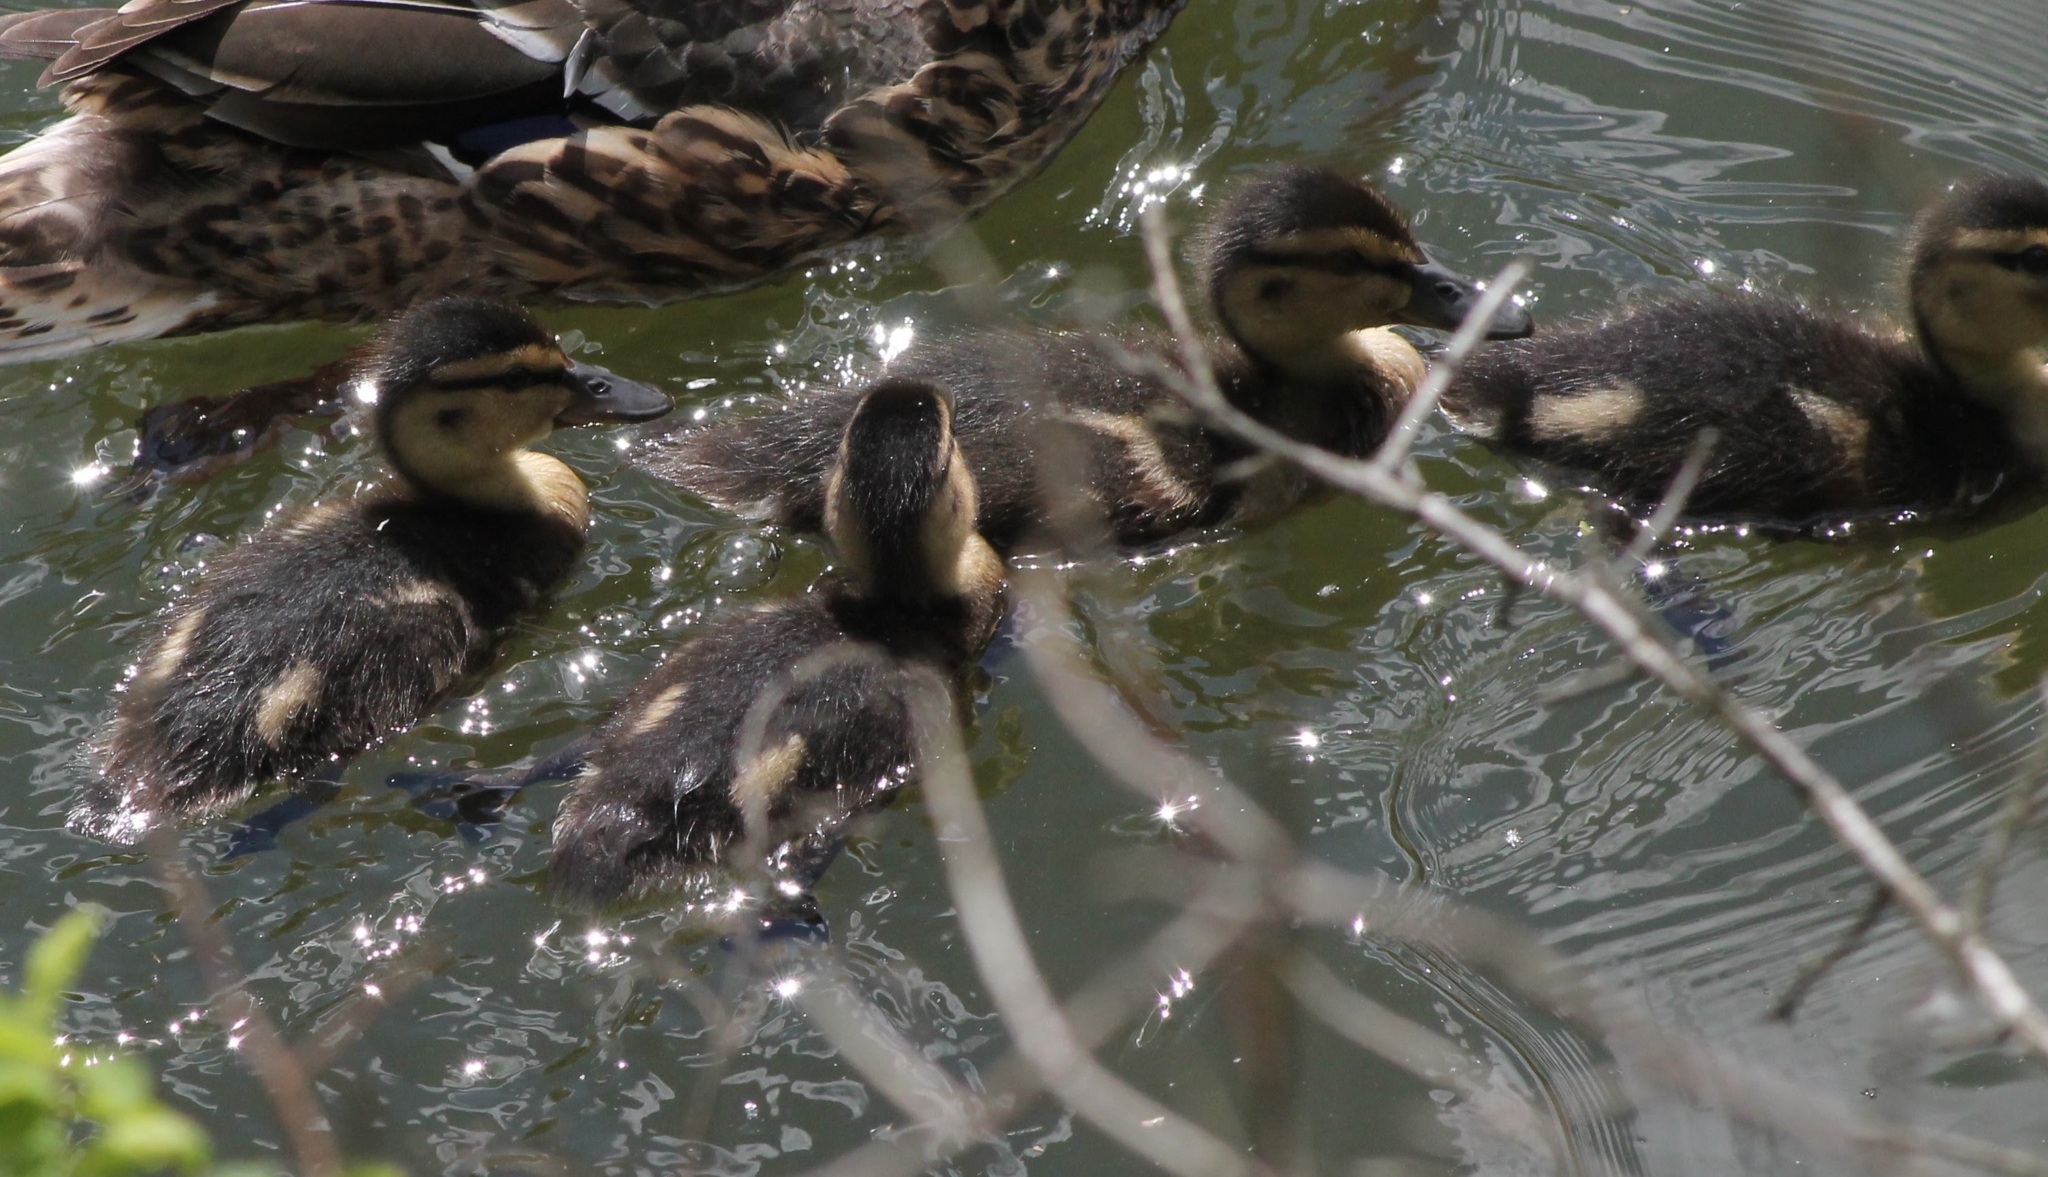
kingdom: Animalia
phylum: Chordata
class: Aves
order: Anseriformes
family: Anatidae
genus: Anas
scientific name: Anas platyrhynchos
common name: Mallard
